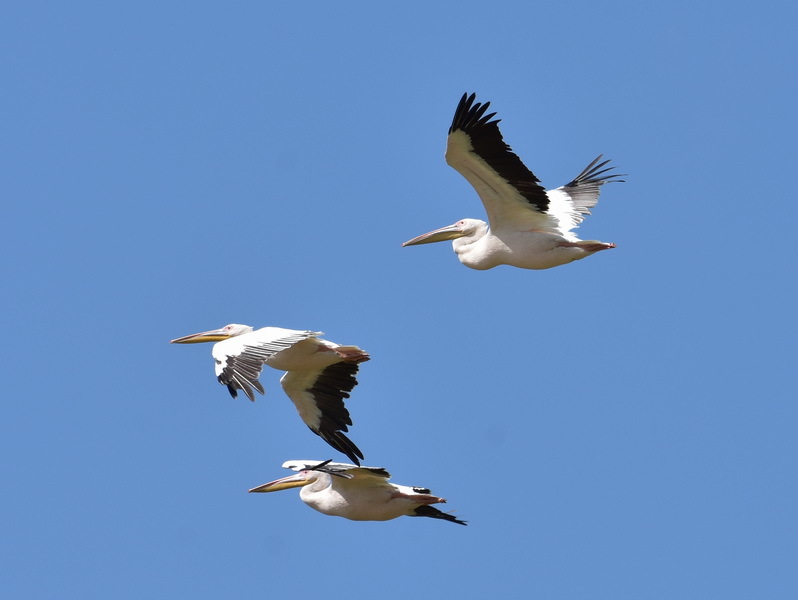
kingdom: Animalia
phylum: Chordata
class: Aves
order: Pelecaniformes
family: Pelecanidae
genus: Pelecanus
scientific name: Pelecanus onocrotalus
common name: Great white pelican
